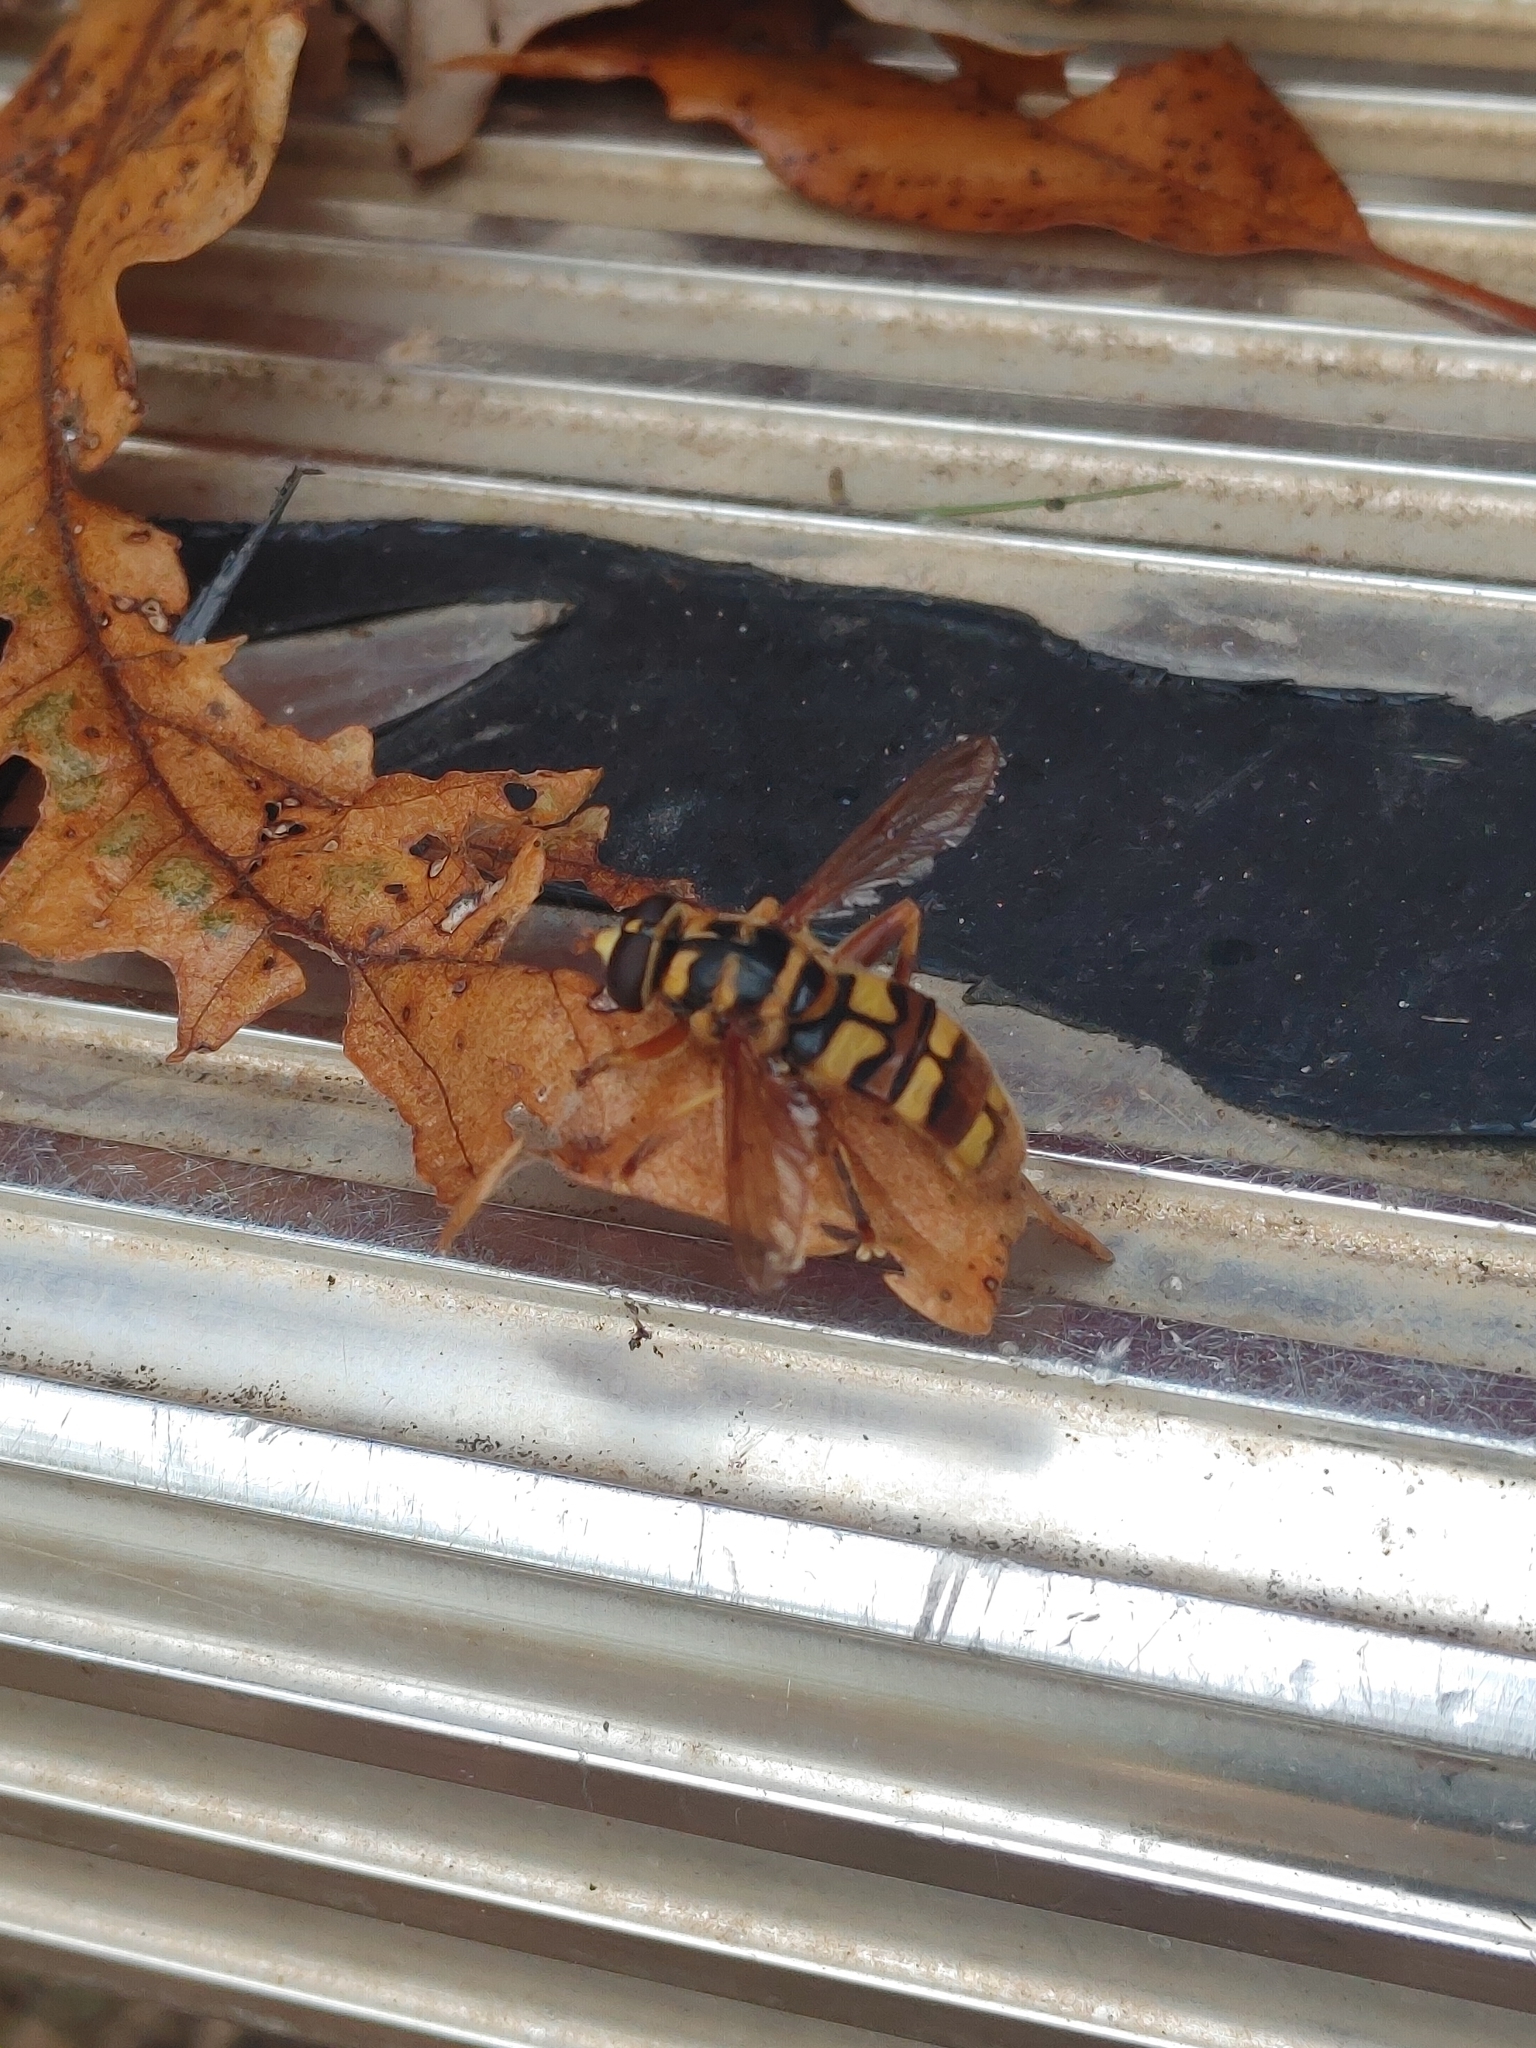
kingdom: Animalia
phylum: Arthropoda
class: Insecta
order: Diptera
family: Syrphidae
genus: Milesia
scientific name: Milesia virginiensis
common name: Virginia giant
